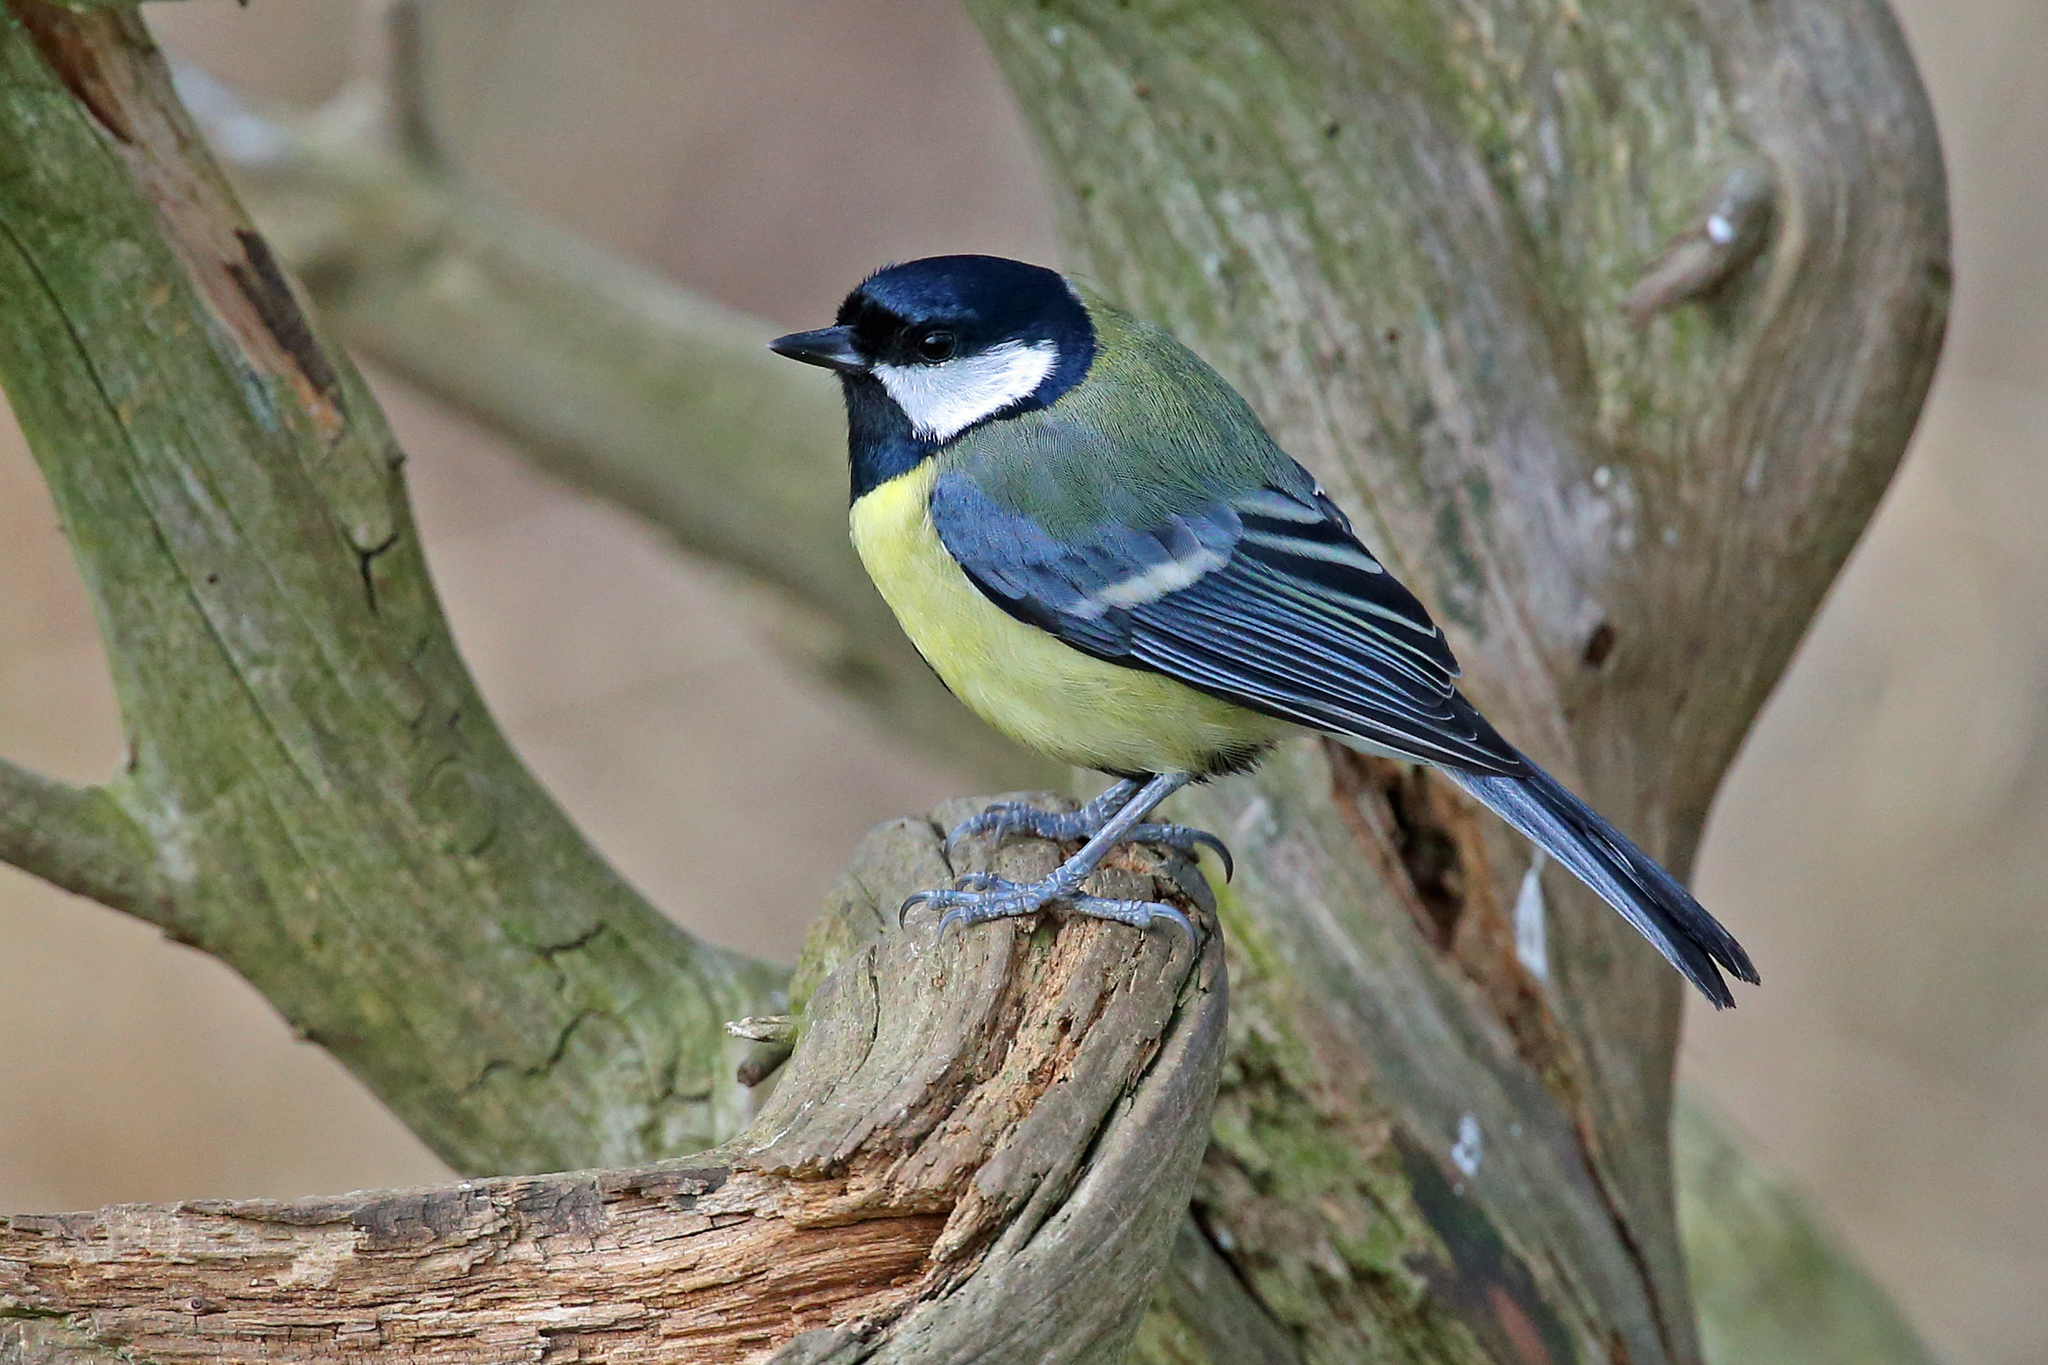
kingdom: Animalia
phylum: Chordata
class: Aves
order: Passeriformes
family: Paridae
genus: Parus
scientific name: Parus major
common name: Great tit
